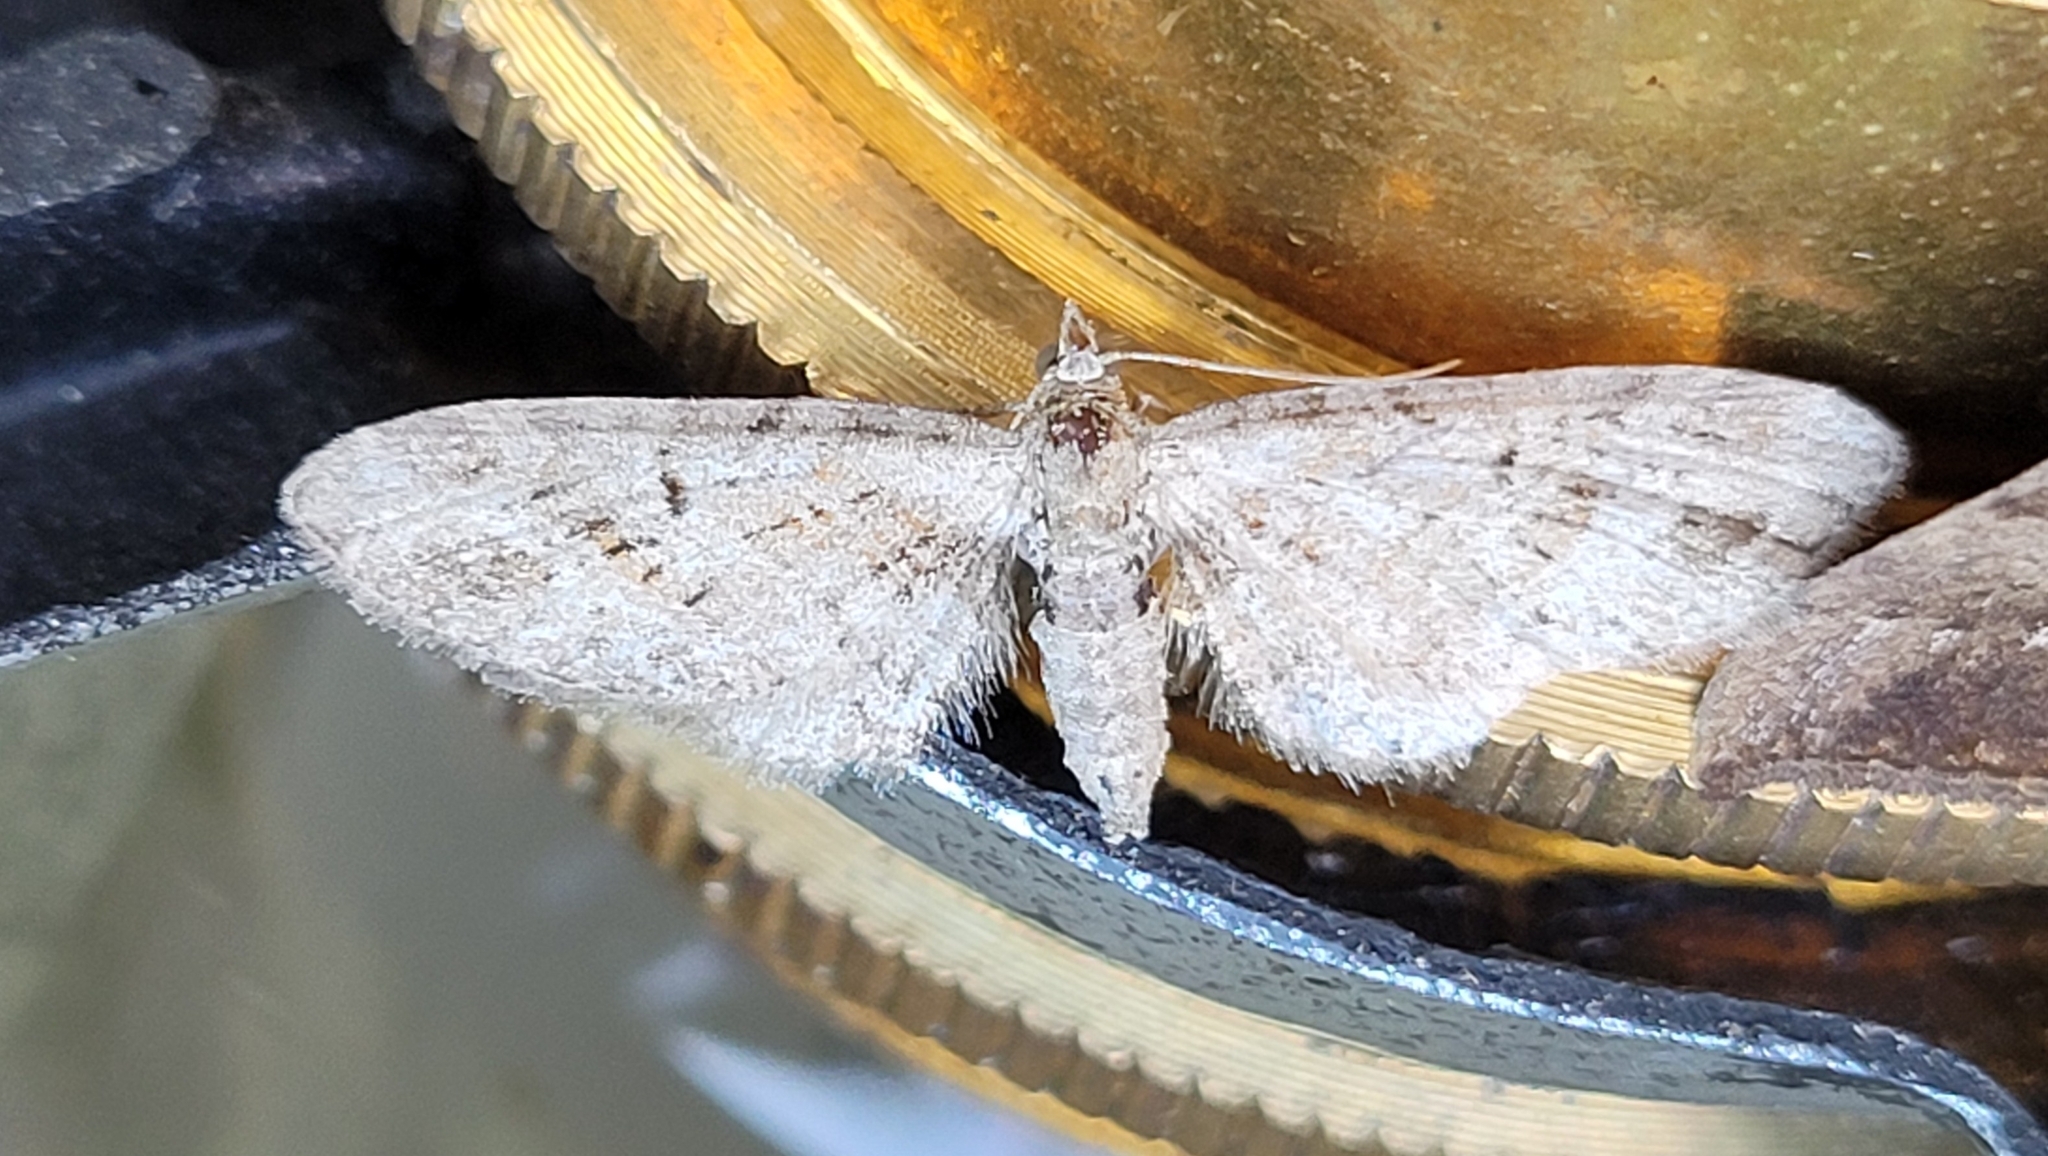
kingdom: Animalia
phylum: Arthropoda
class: Insecta
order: Lepidoptera
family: Geometridae
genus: Eupithecia
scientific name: Eupithecia exiguata
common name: Mottled pug
